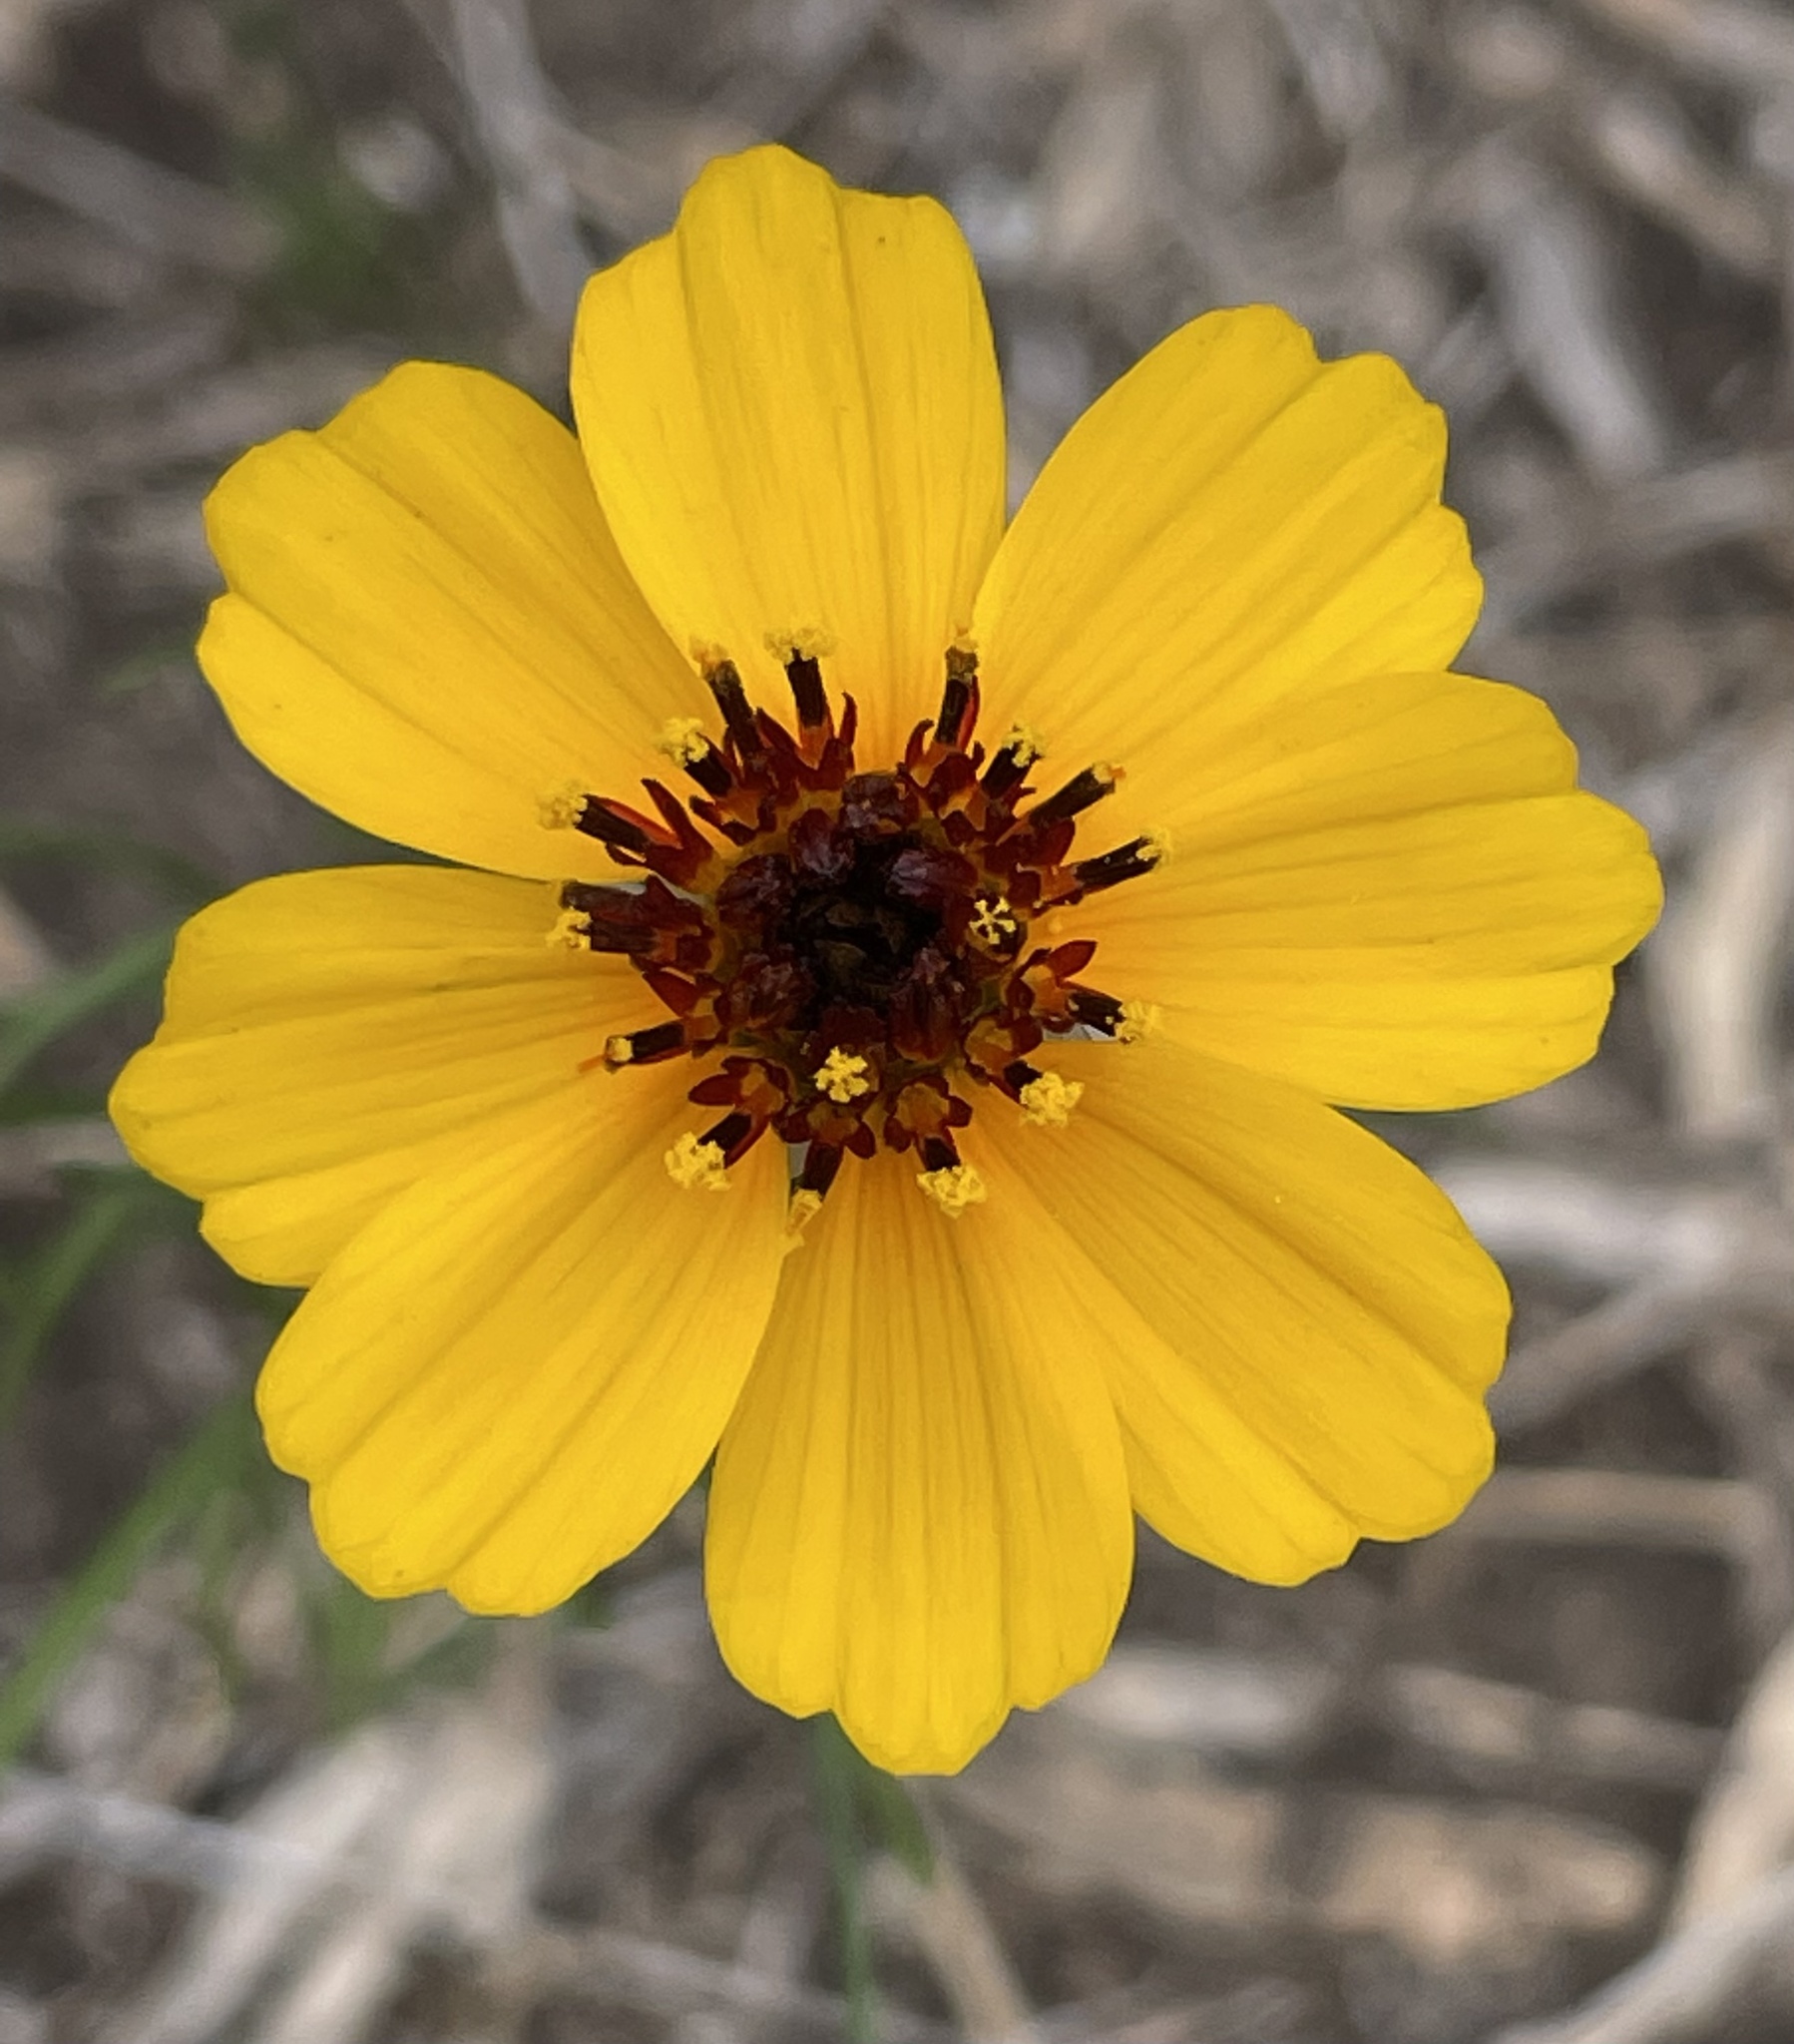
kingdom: Plantae
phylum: Tracheophyta
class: Magnoliopsida
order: Asterales
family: Asteraceae
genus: Thelesperma
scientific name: Thelesperma filifolium
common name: Stiff greenthread
